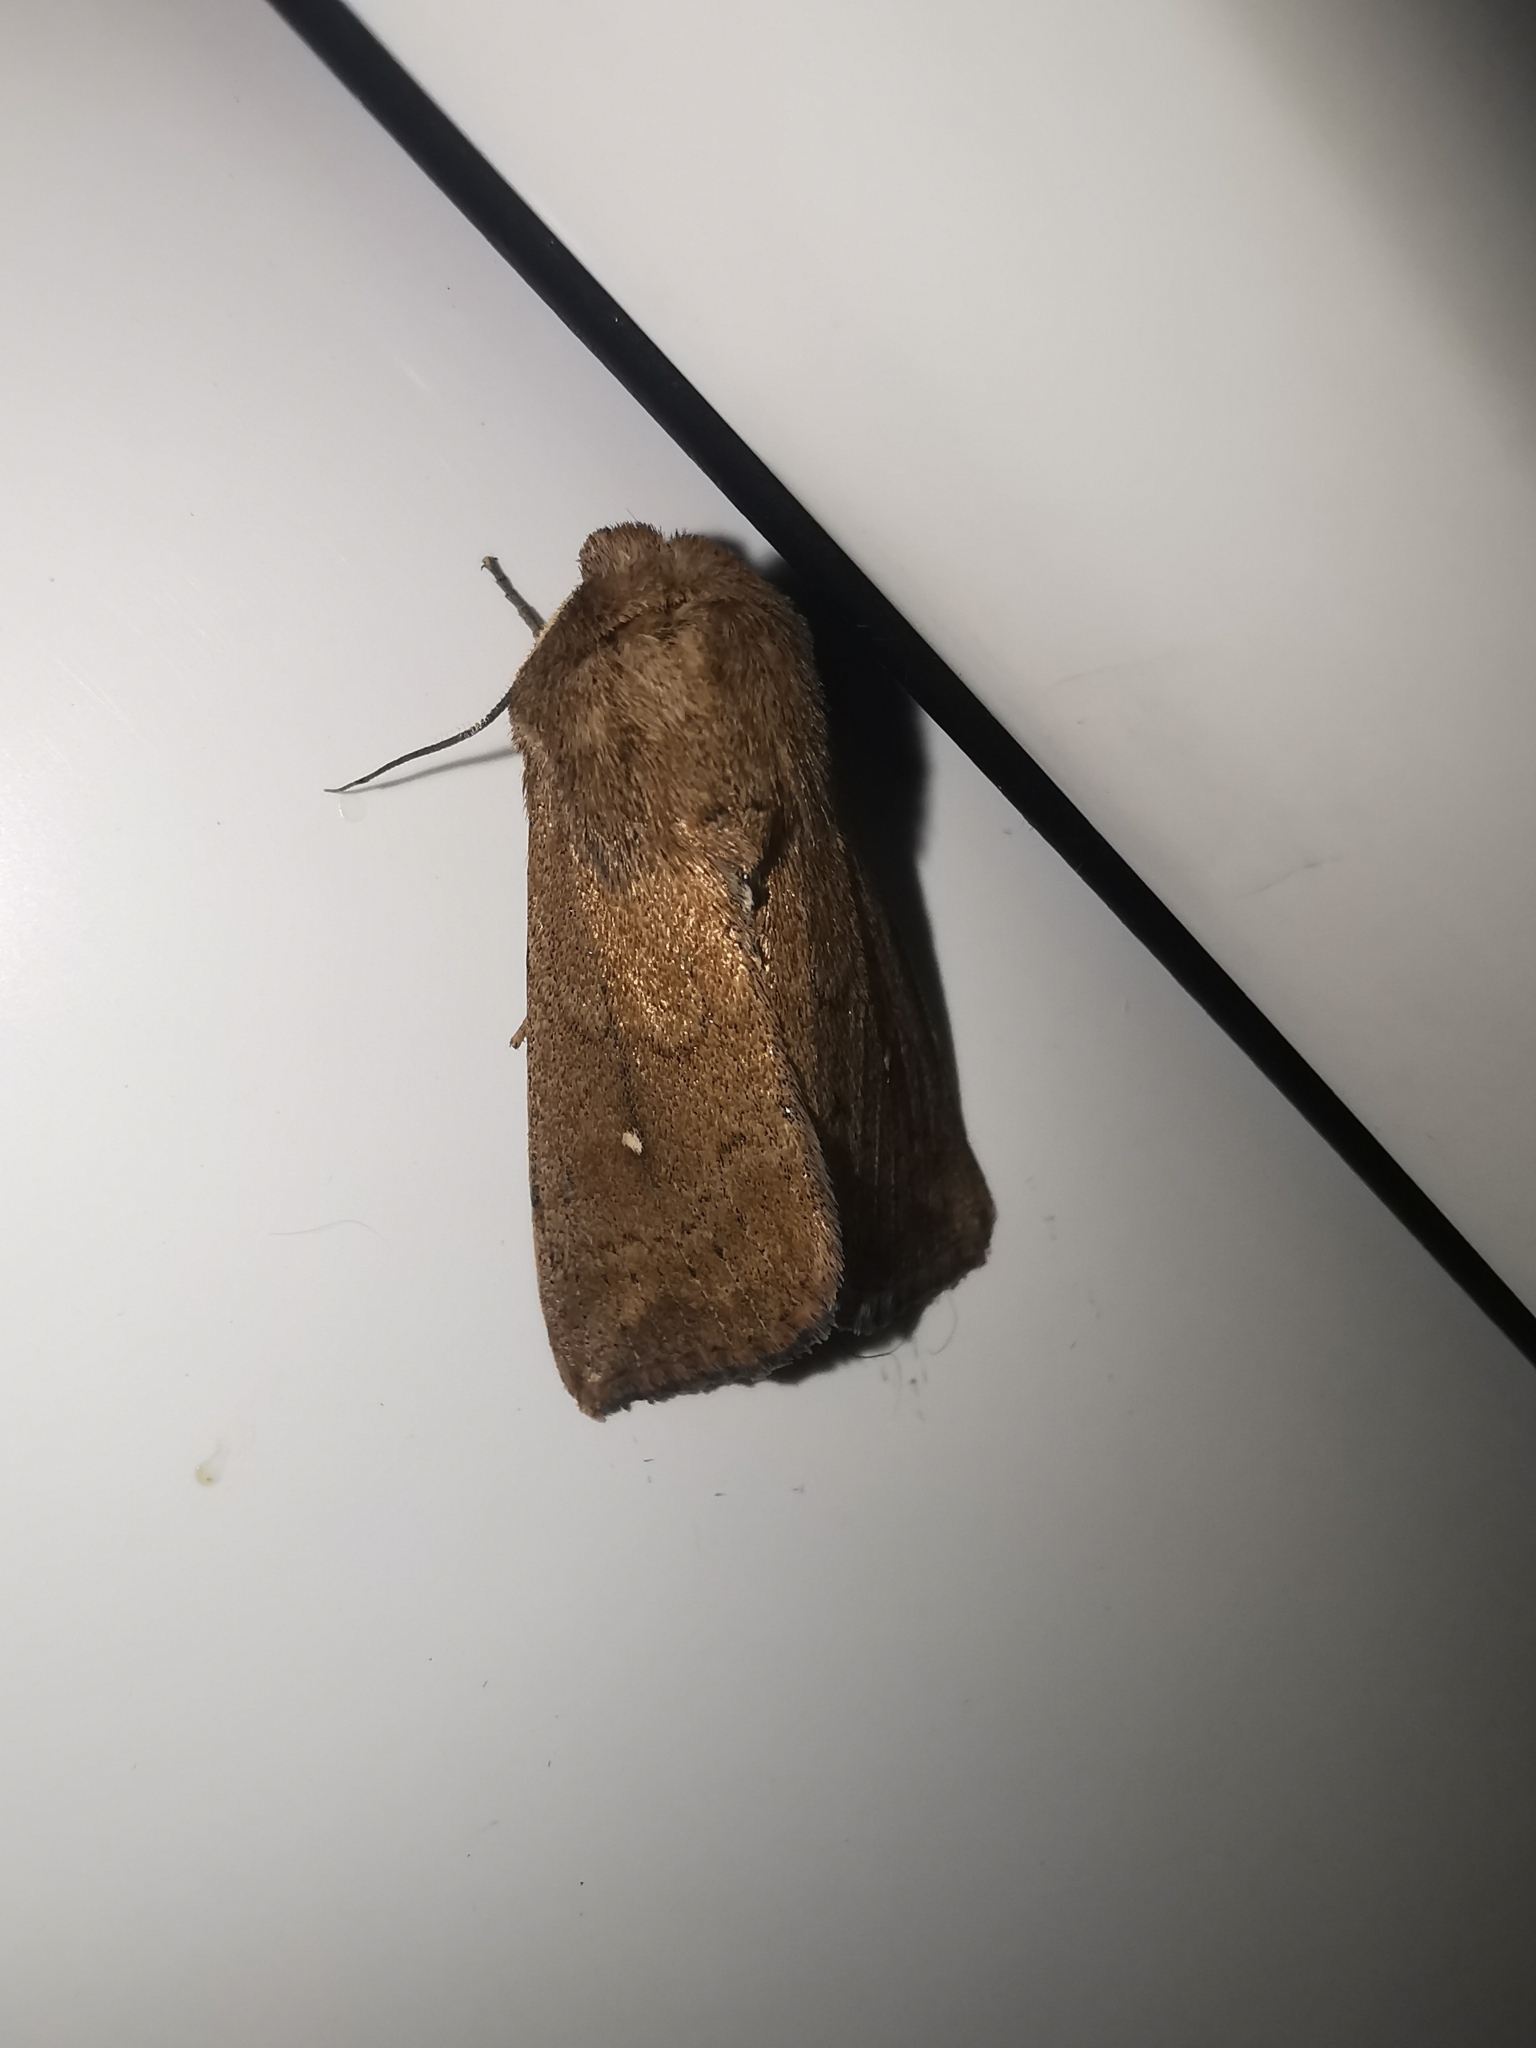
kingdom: Animalia
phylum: Arthropoda
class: Insecta
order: Lepidoptera
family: Noctuidae
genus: Mythimna
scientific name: Mythimna albipuncta
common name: White-point
